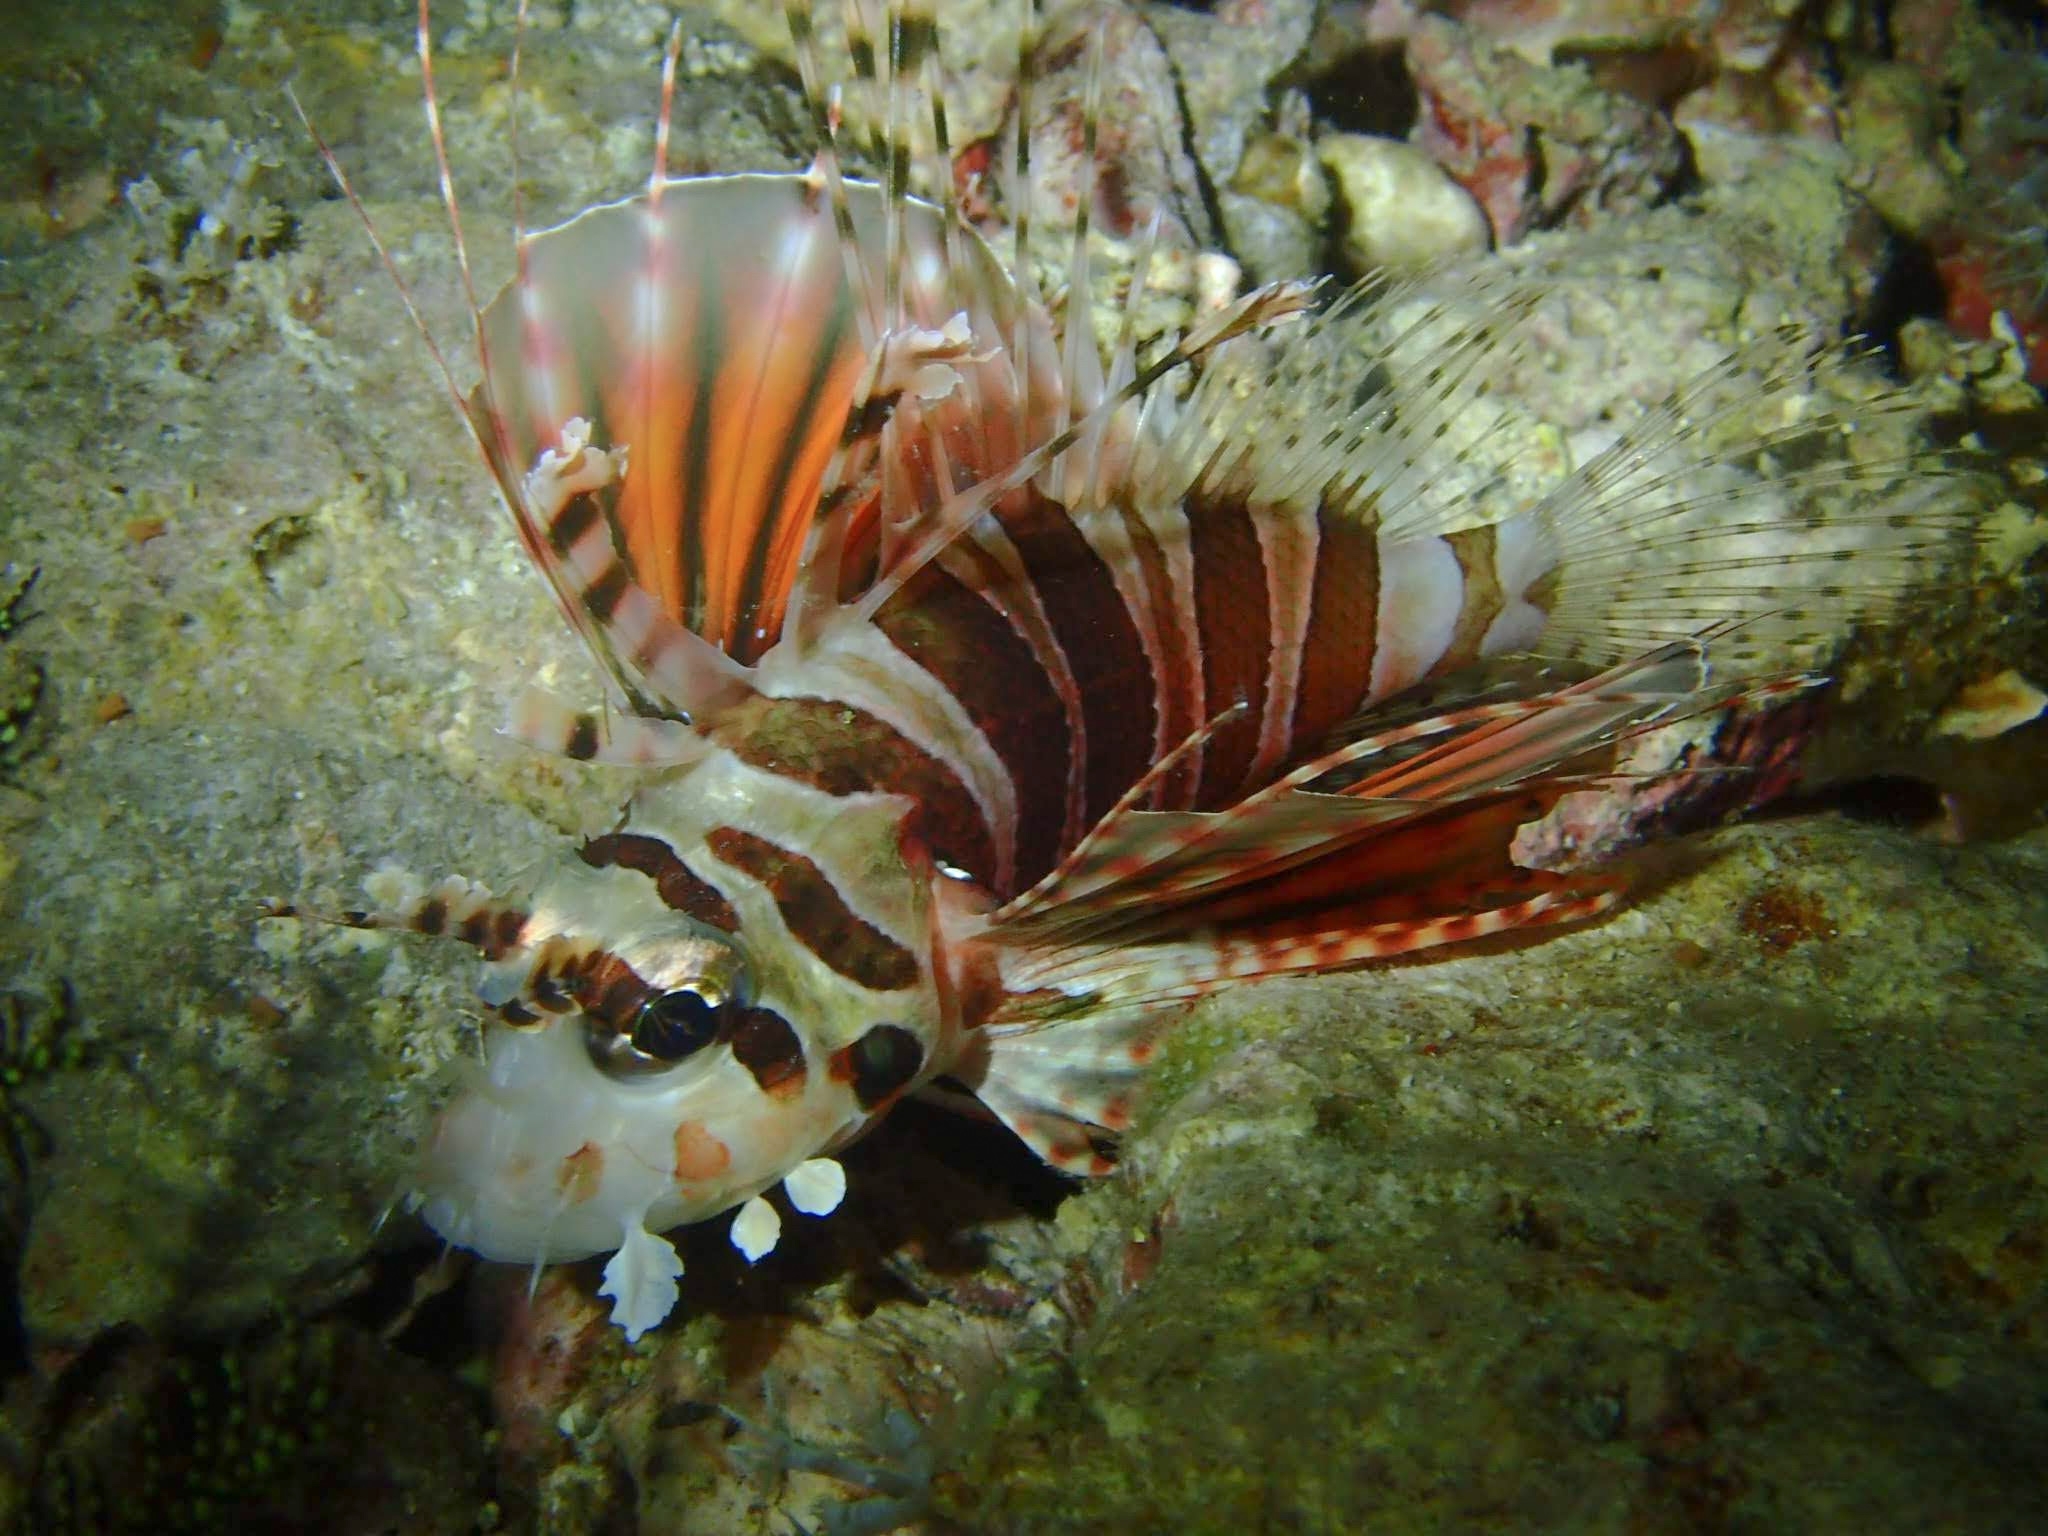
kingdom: Animalia
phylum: Chordata
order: Scorpaeniformes
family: Scorpaenidae
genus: Dendrochirus
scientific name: Dendrochirus zebra
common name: Zebra lionfish
